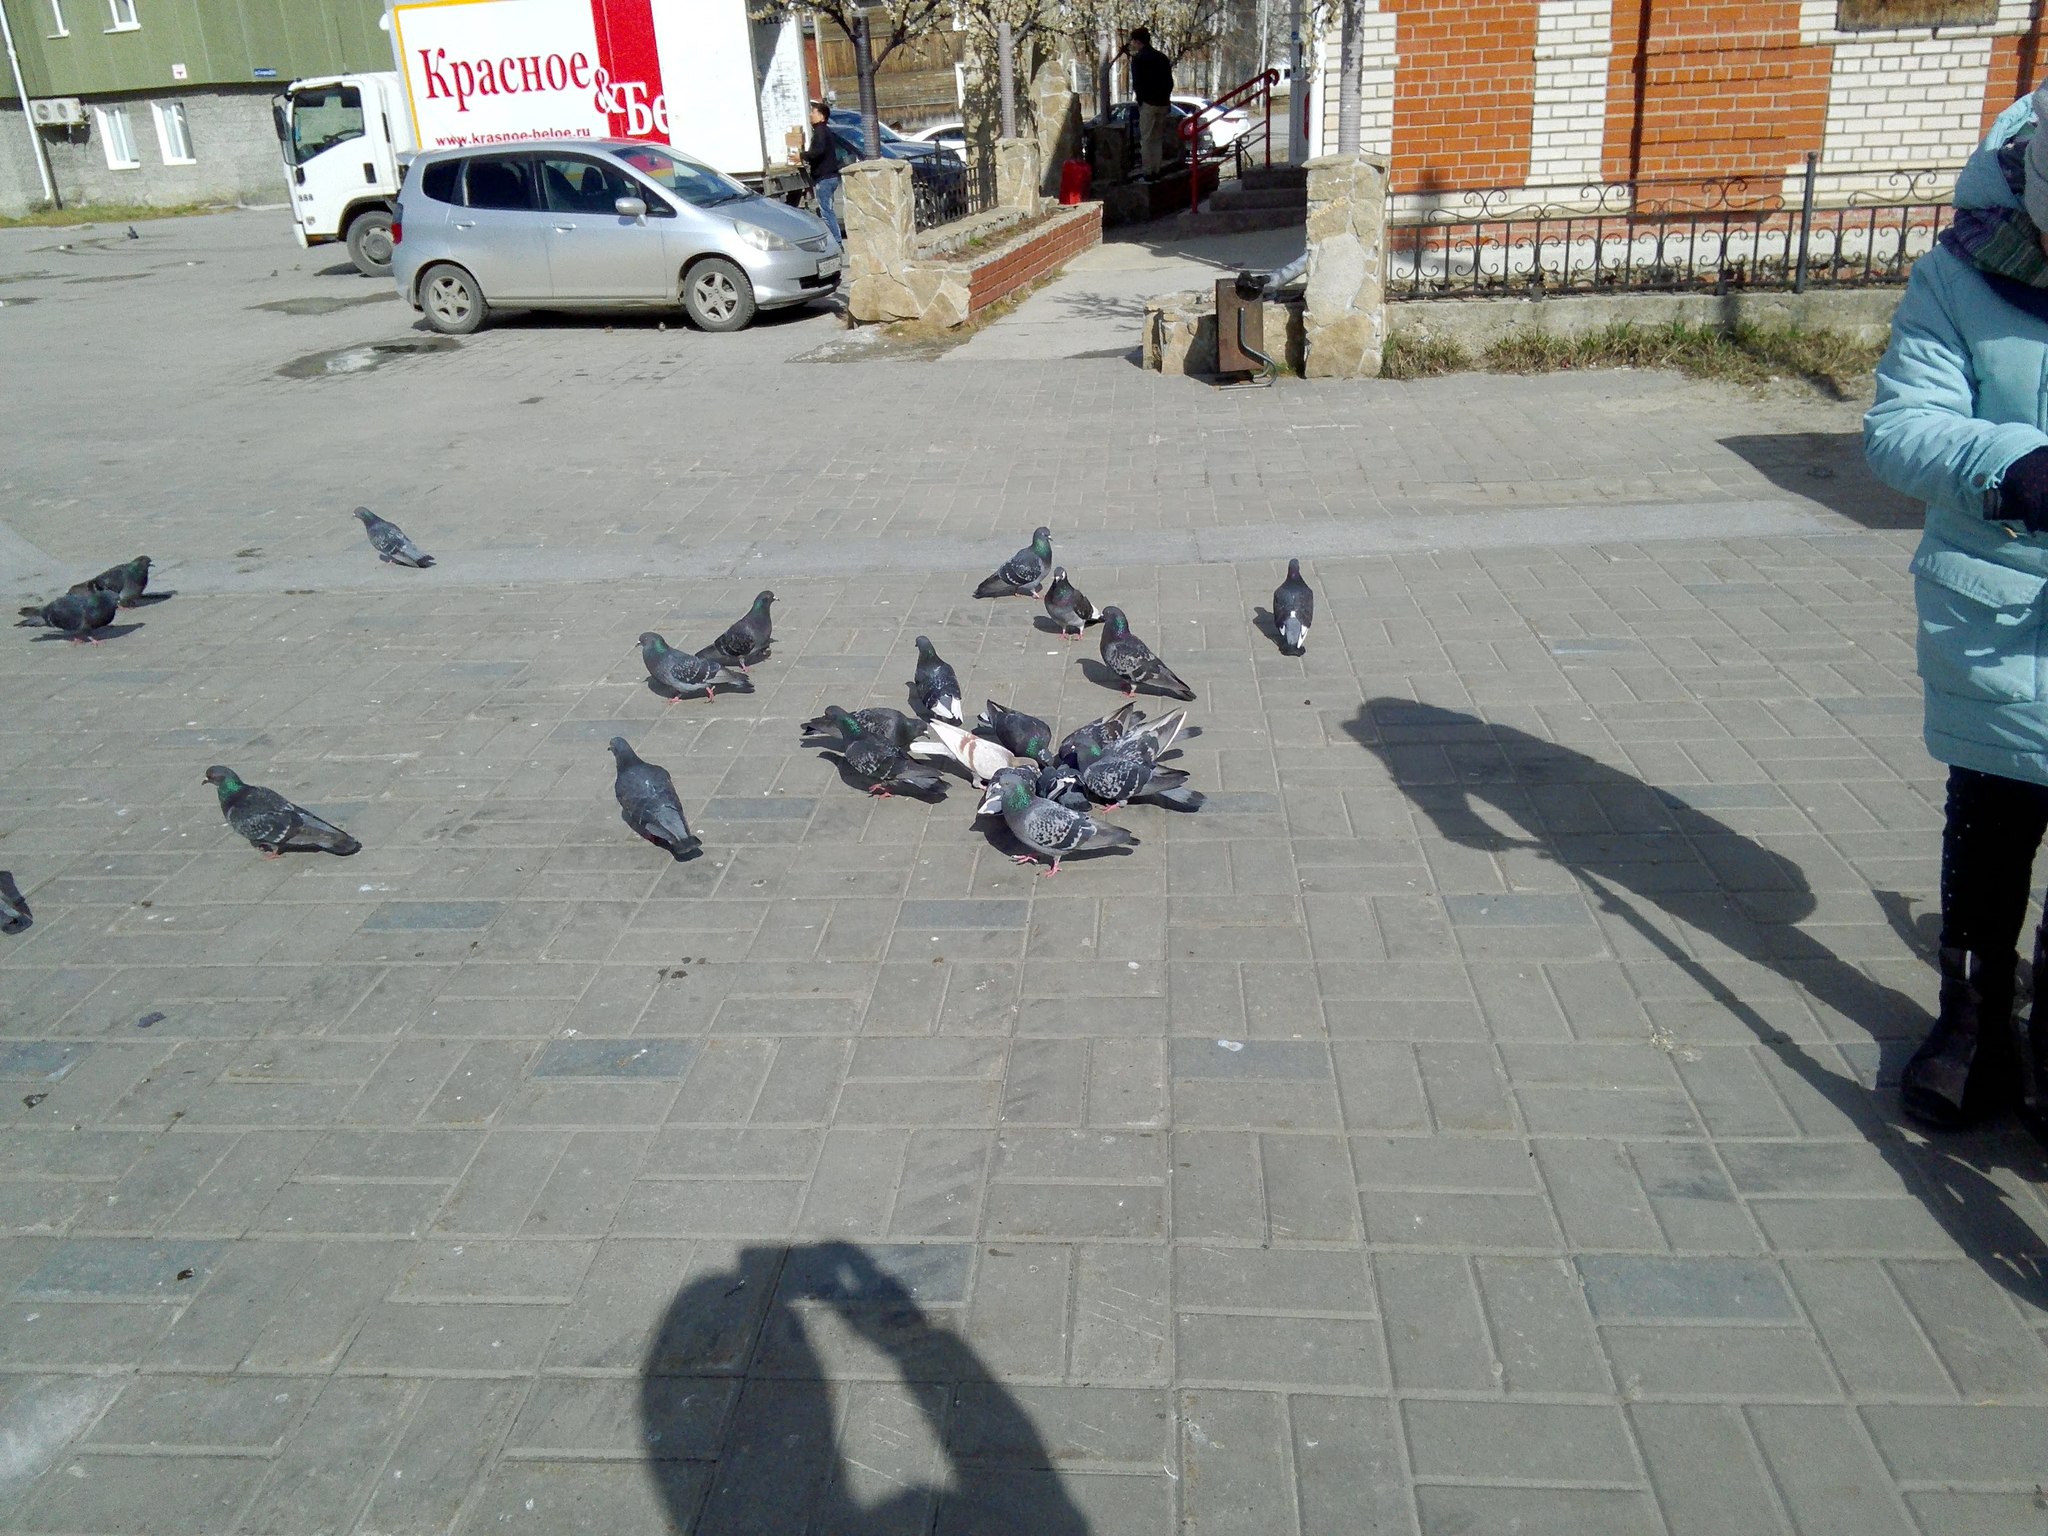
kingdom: Animalia
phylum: Chordata
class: Aves
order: Columbiformes
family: Columbidae
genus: Columba
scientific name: Columba livia
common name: Rock pigeon
